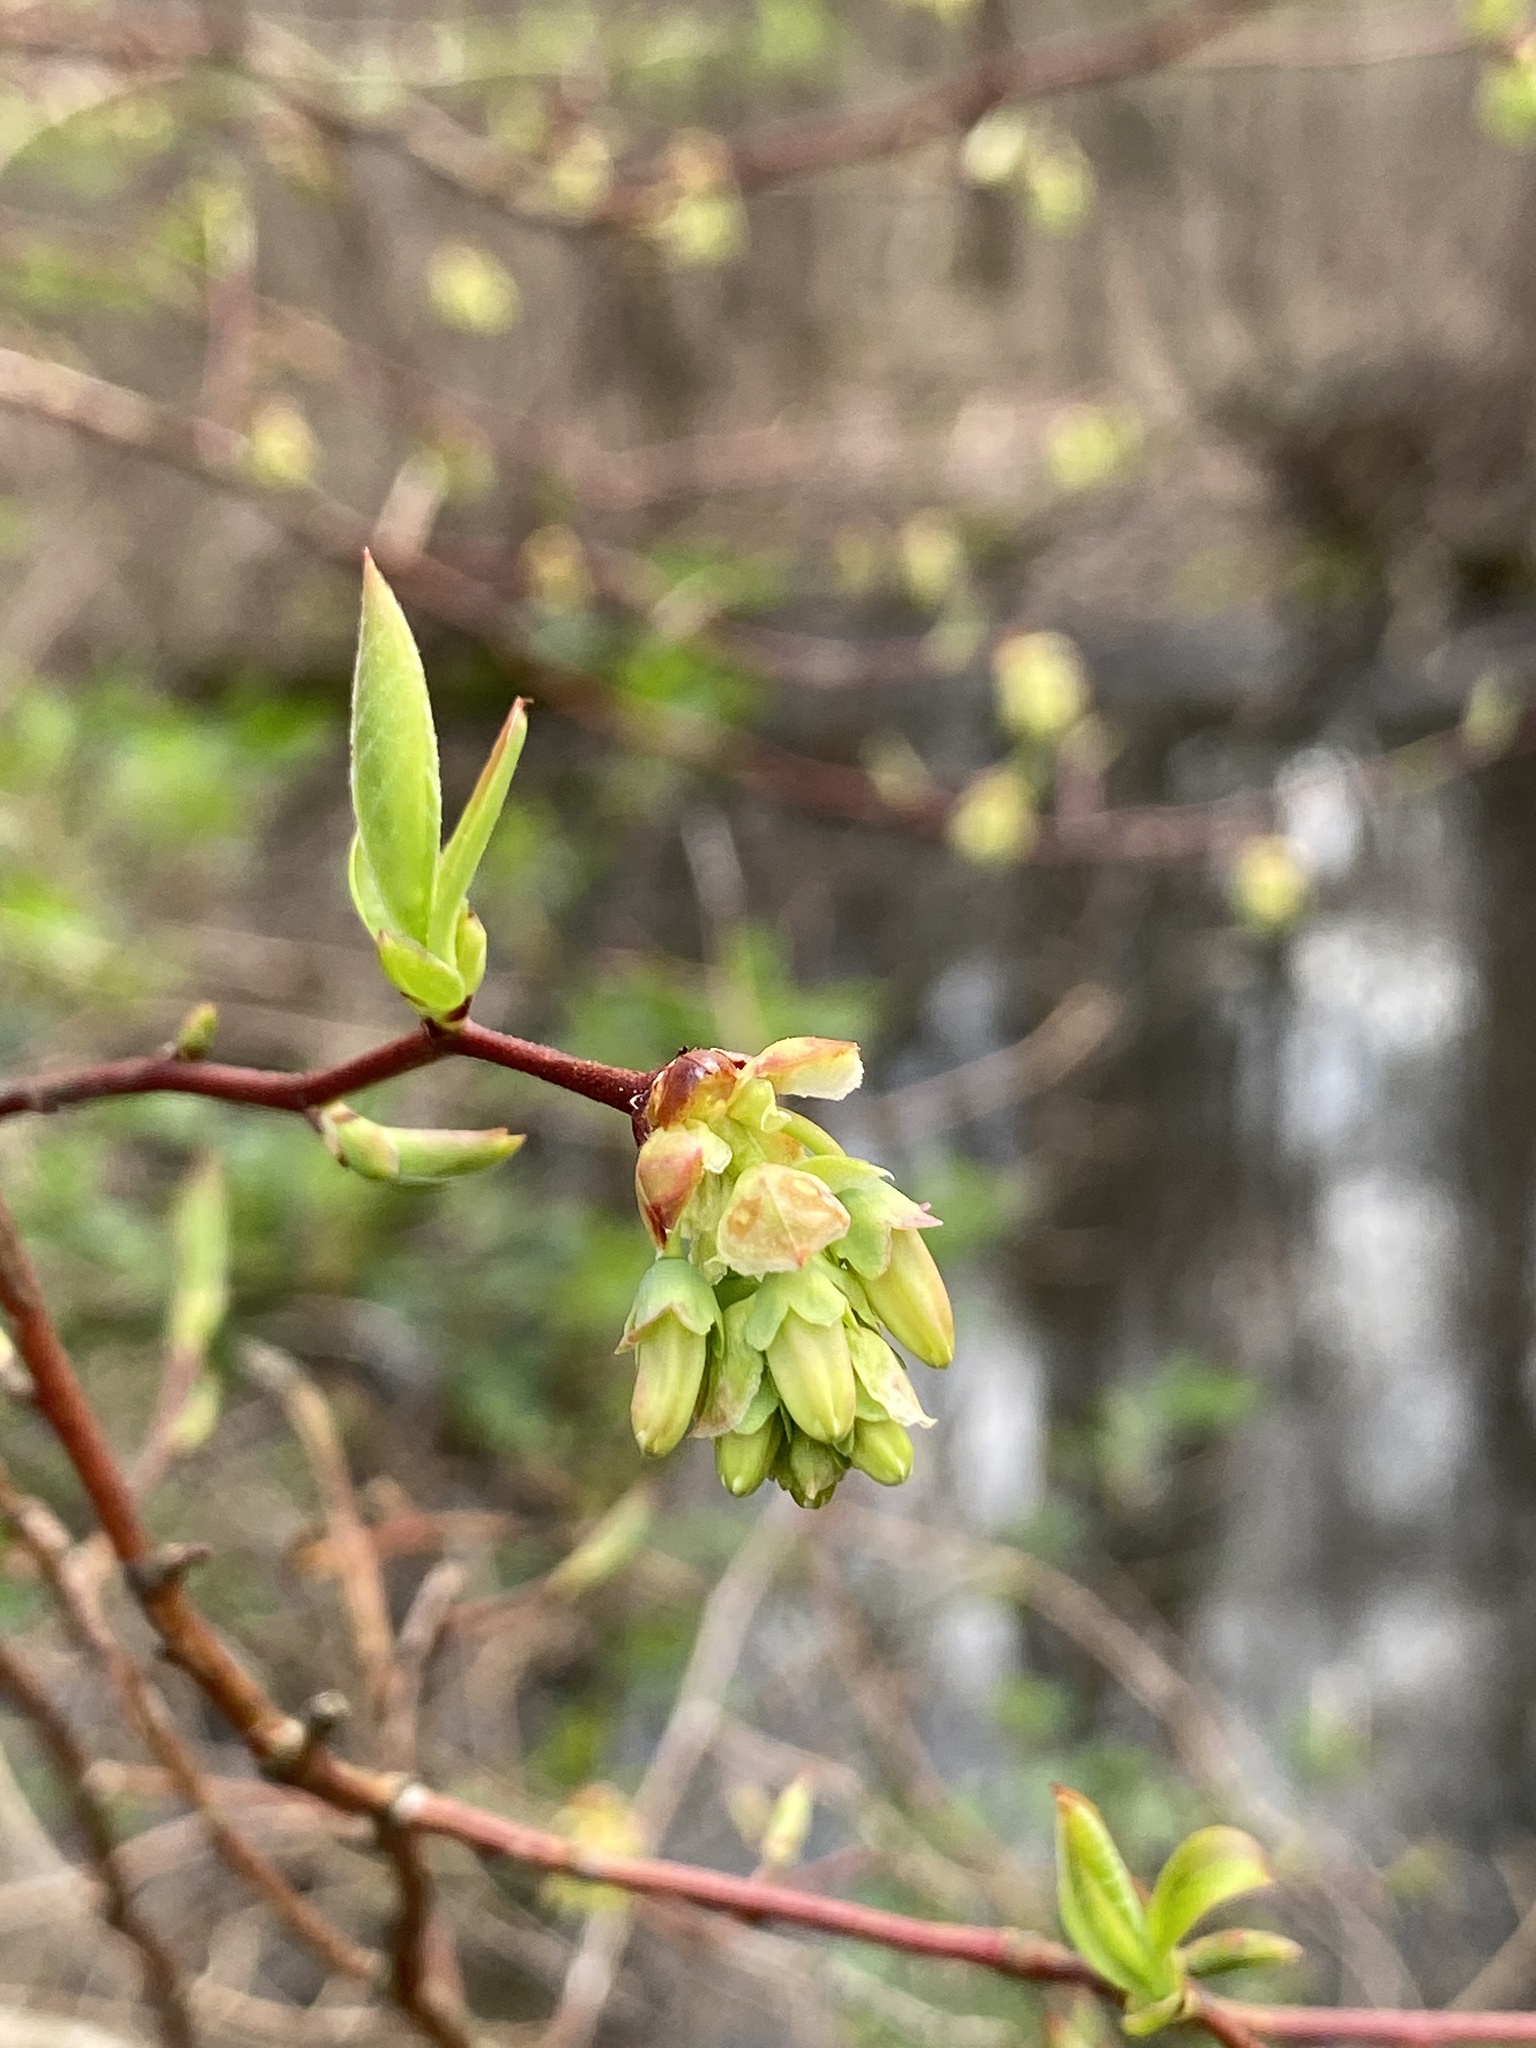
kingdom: Plantae
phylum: Tracheophyta
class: Magnoliopsida
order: Ericales
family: Ericaceae
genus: Vaccinium
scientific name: Vaccinium corymbosum
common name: Blueberry
